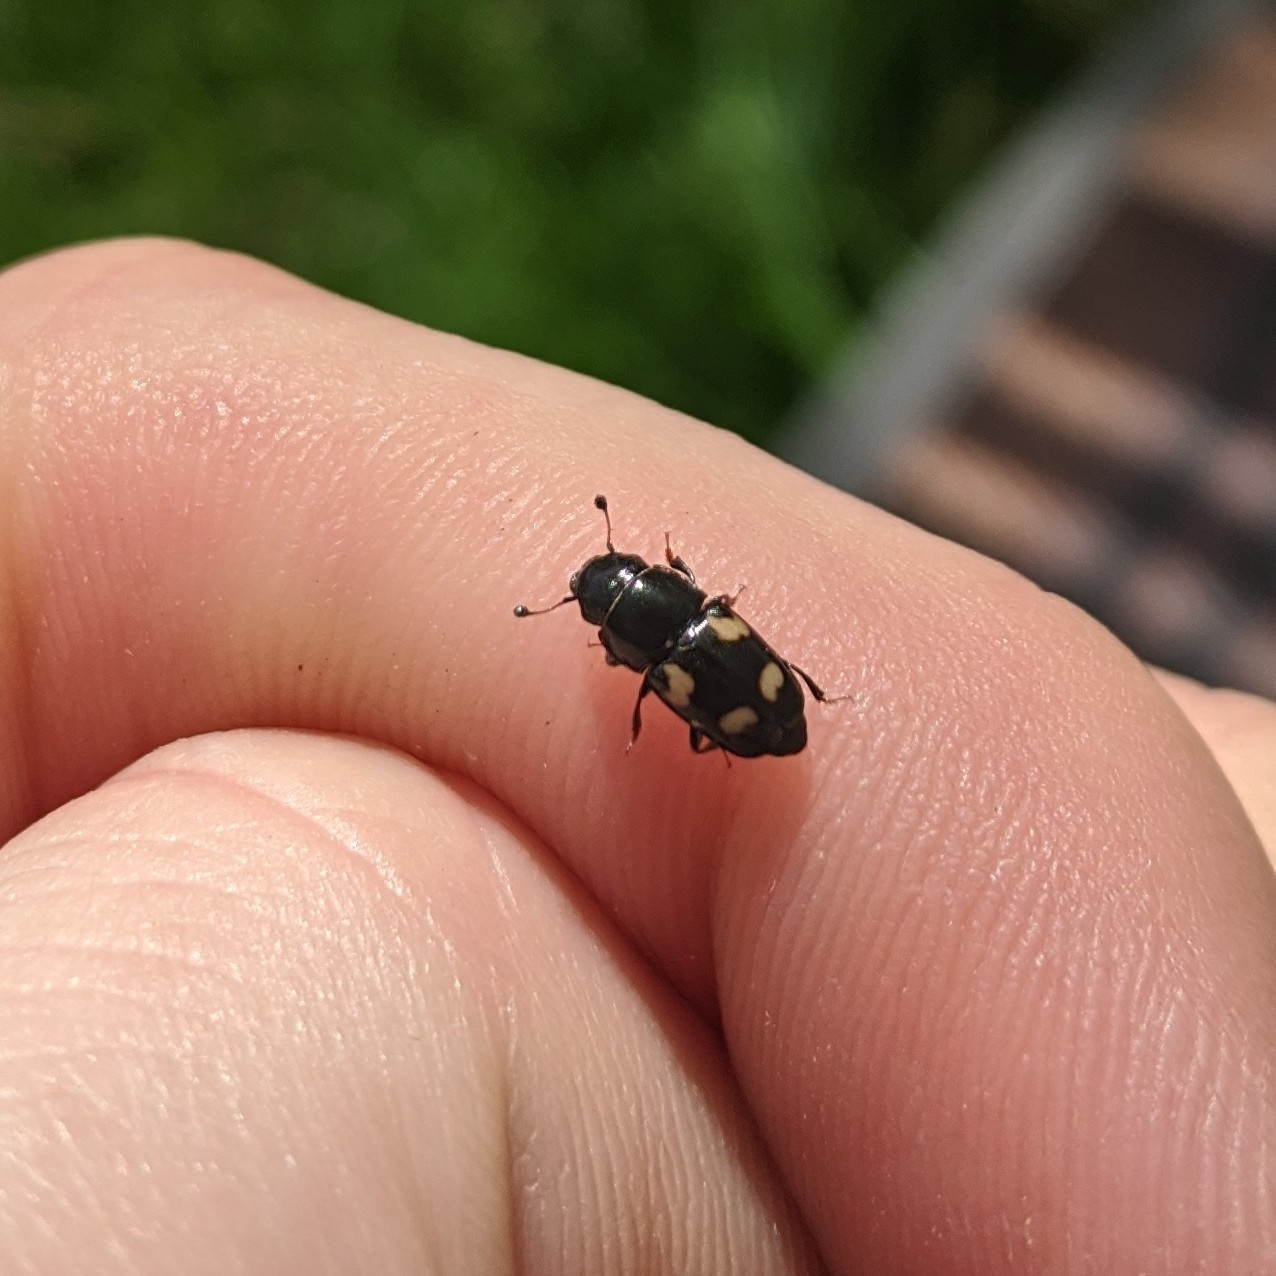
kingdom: Animalia
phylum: Arthropoda
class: Insecta
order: Coleoptera
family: Nitidulidae
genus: Glischrochilus
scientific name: Glischrochilus quadrisignatus
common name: Picnic beetle
